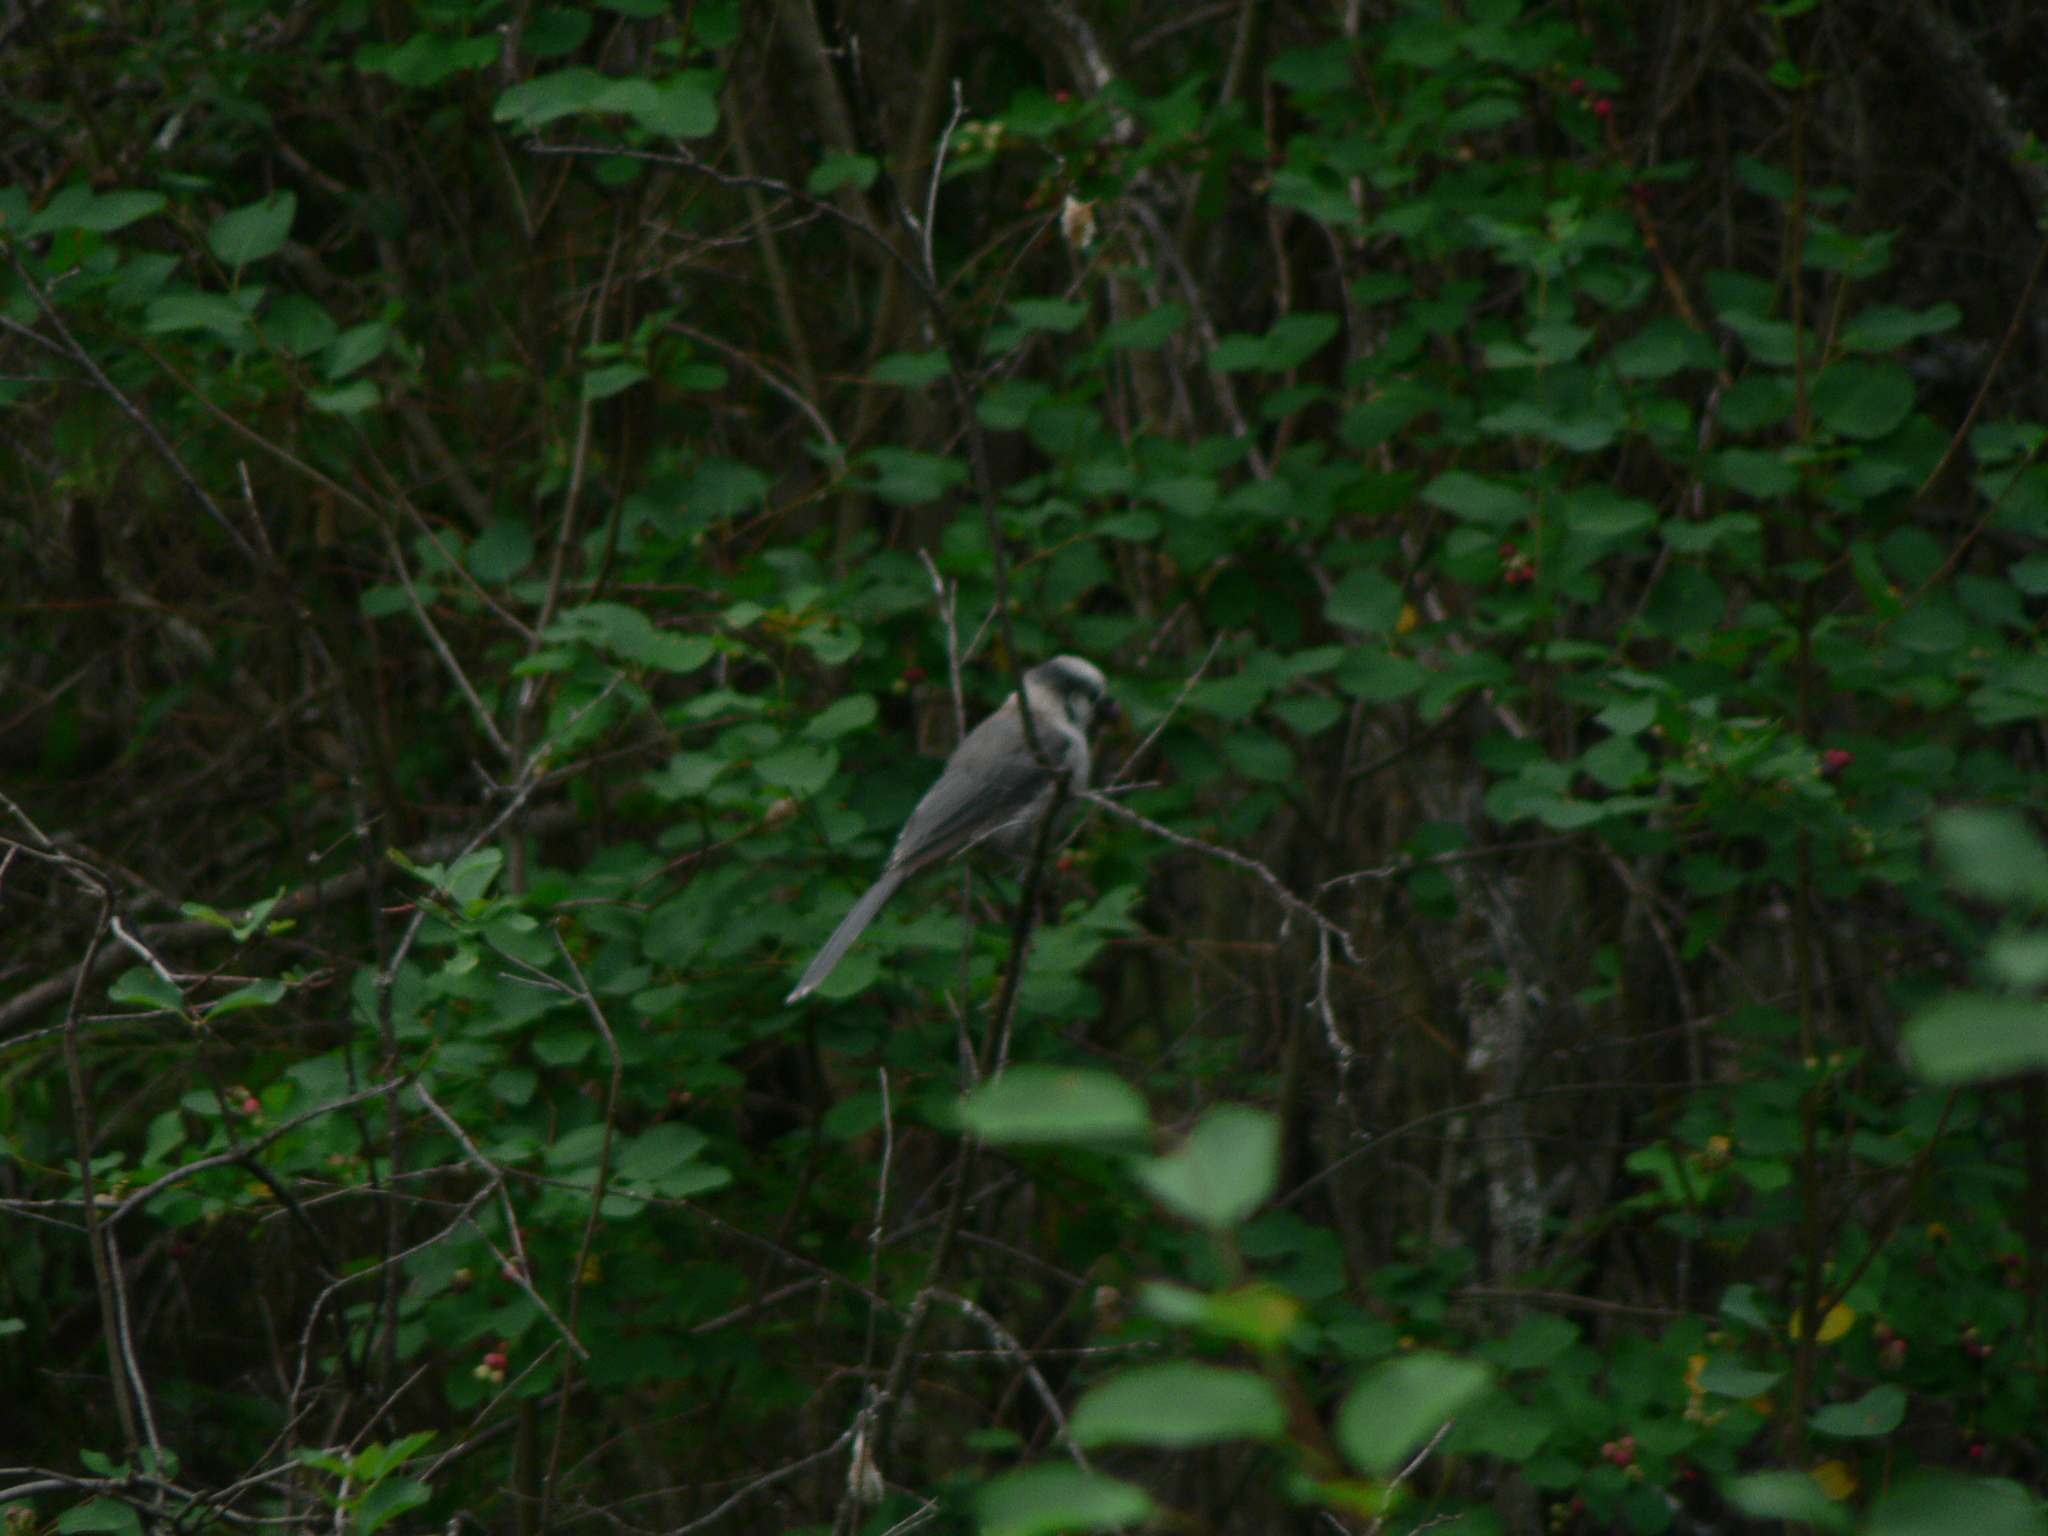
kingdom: Animalia
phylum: Chordata
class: Aves
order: Passeriformes
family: Corvidae
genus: Perisoreus
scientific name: Perisoreus canadensis
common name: Gray jay
